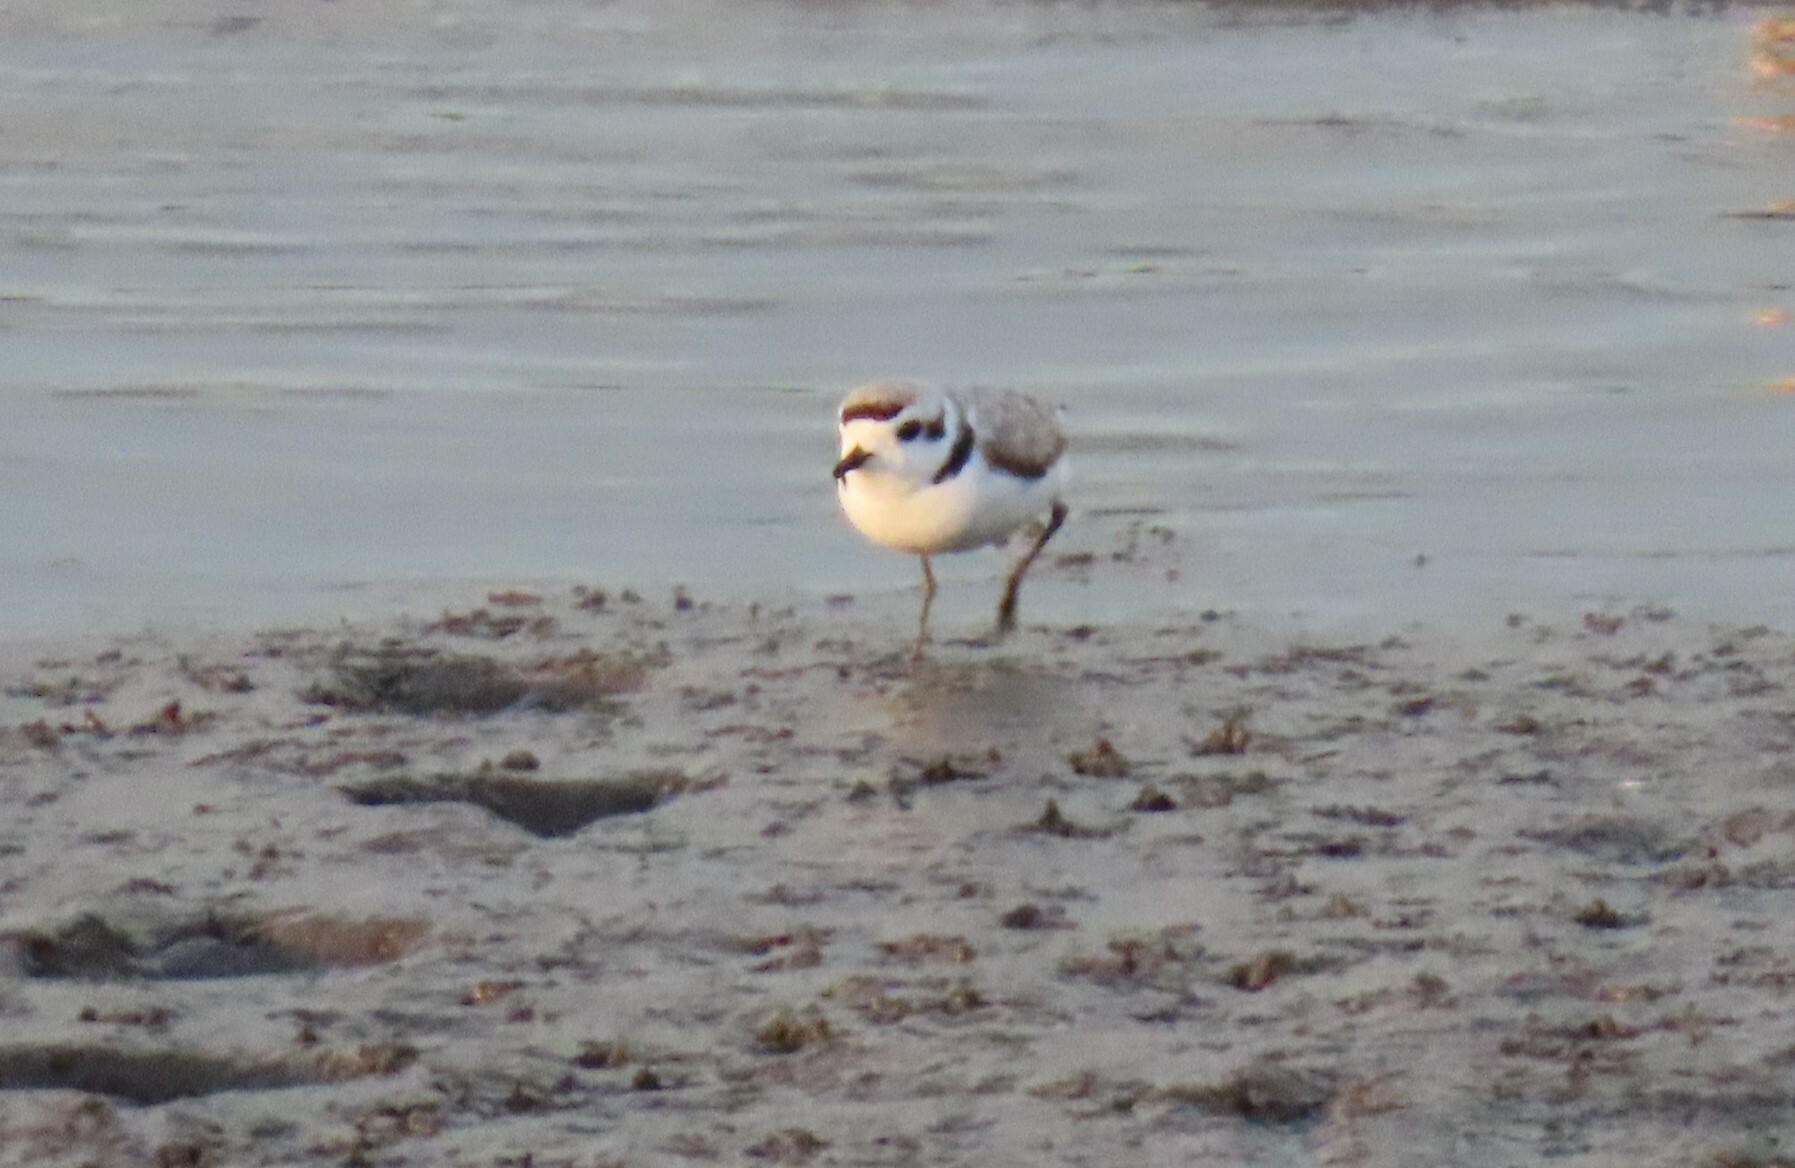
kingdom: Animalia
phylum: Chordata
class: Aves
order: Charadriiformes
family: Charadriidae
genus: Anarhynchus
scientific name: Anarhynchus
